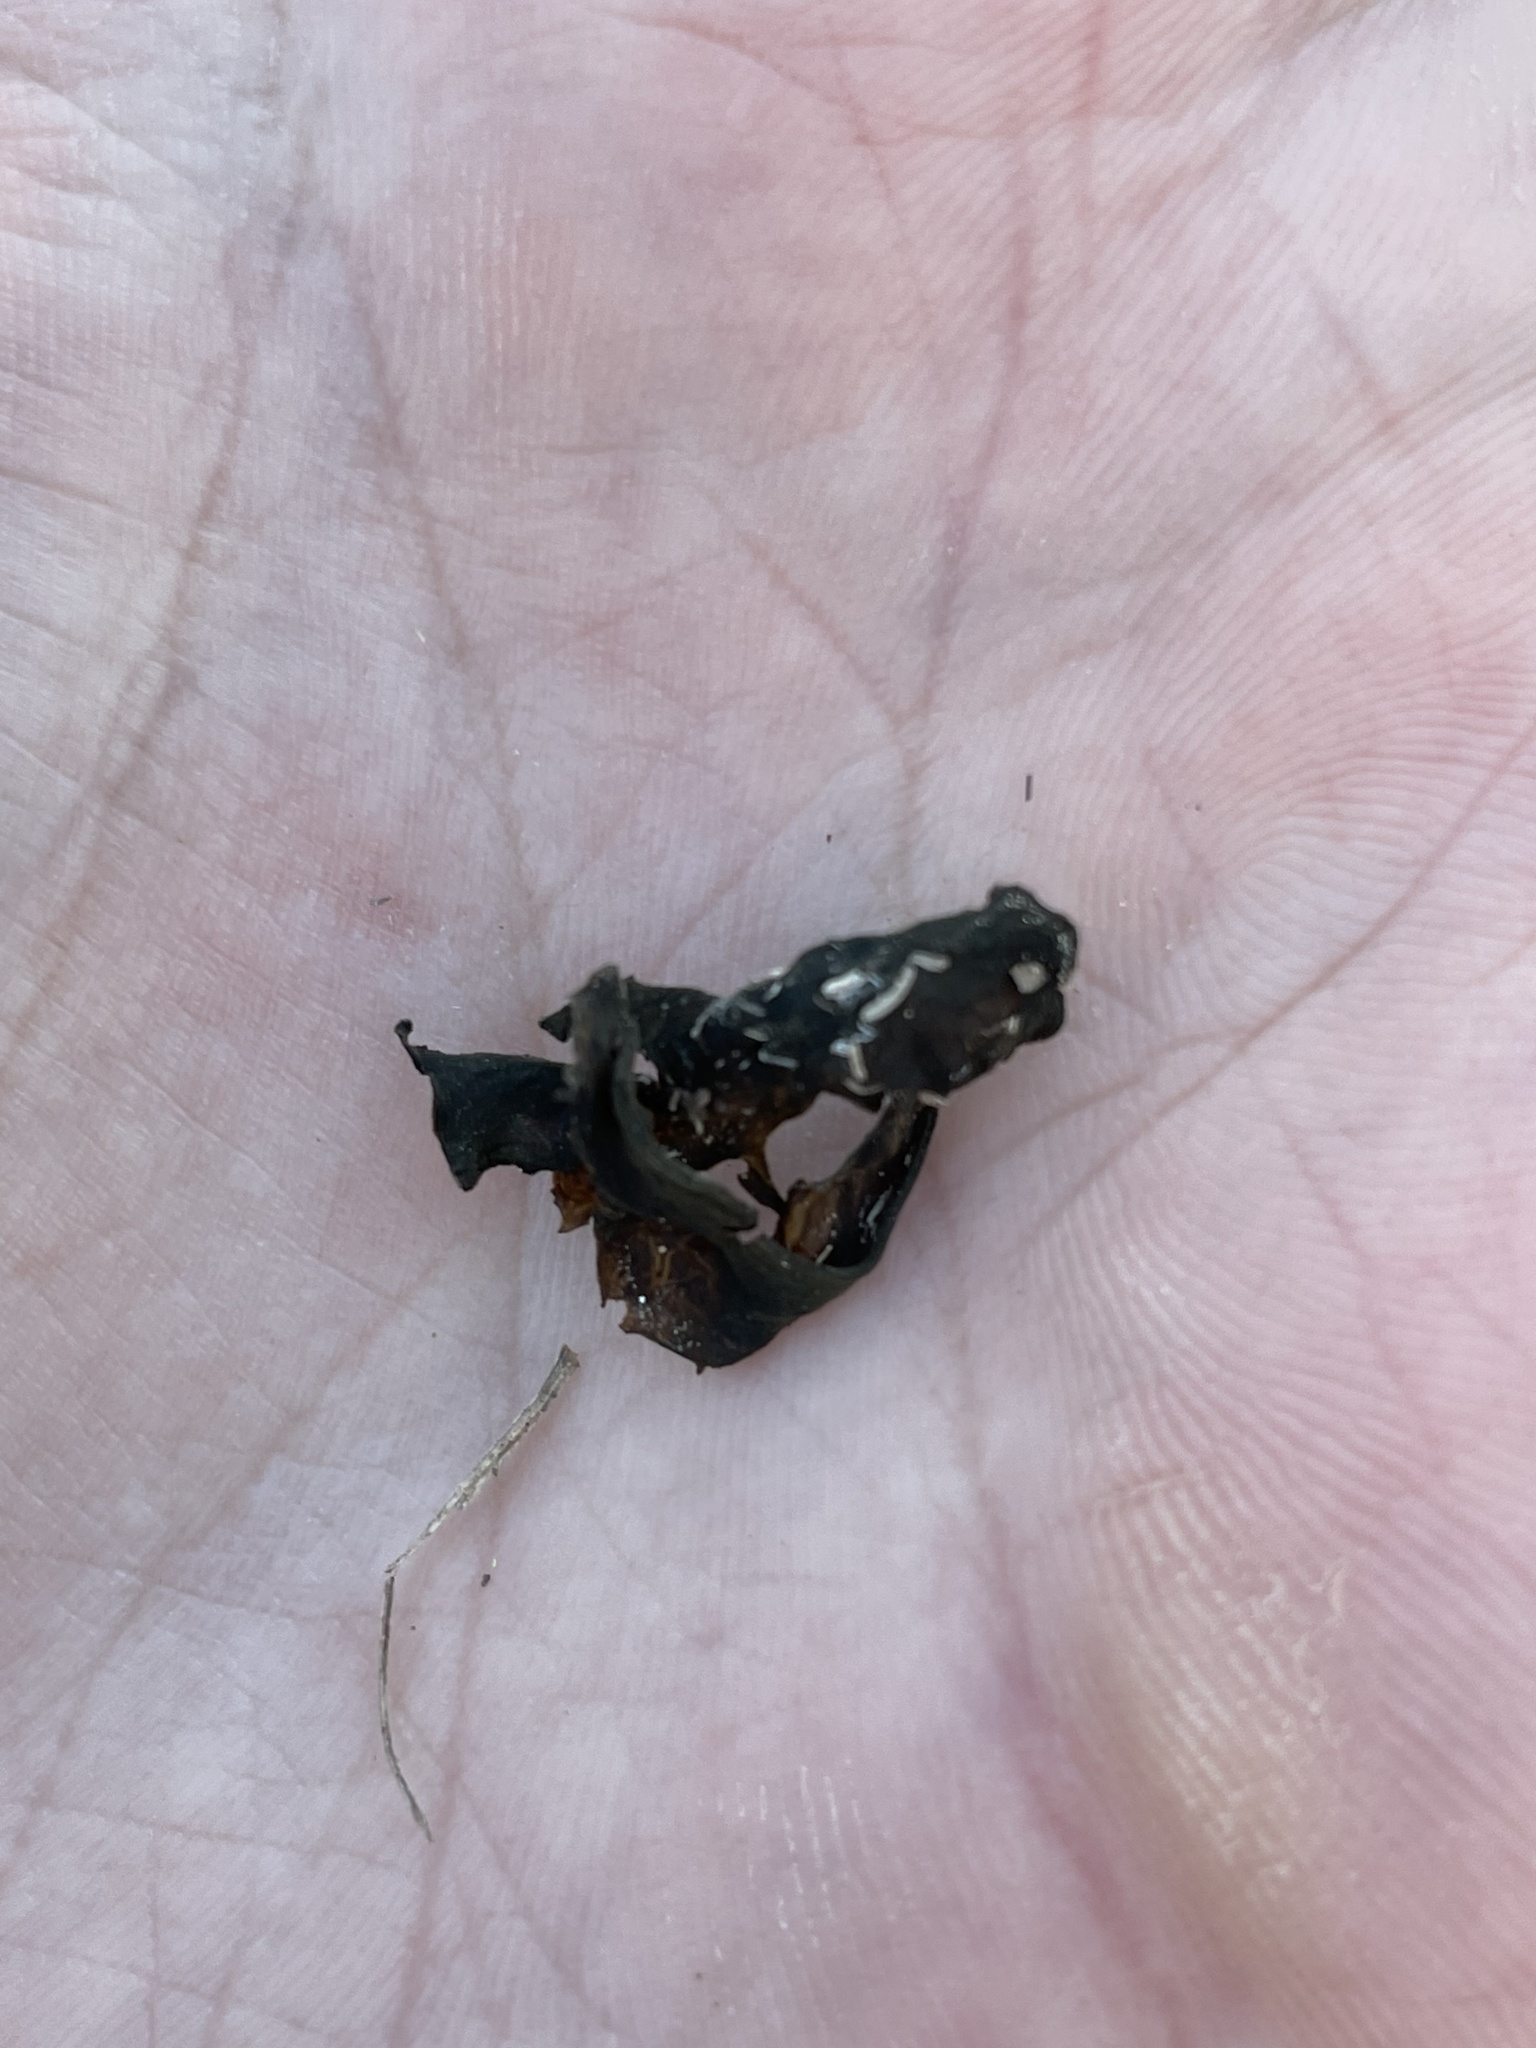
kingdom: Bacteria
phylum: Cyanobacteria
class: Cyanobacteriia
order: Cyanobacteriales
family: Nostocaceae
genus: Nostoc
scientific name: Nostoc commune
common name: Star jelly
